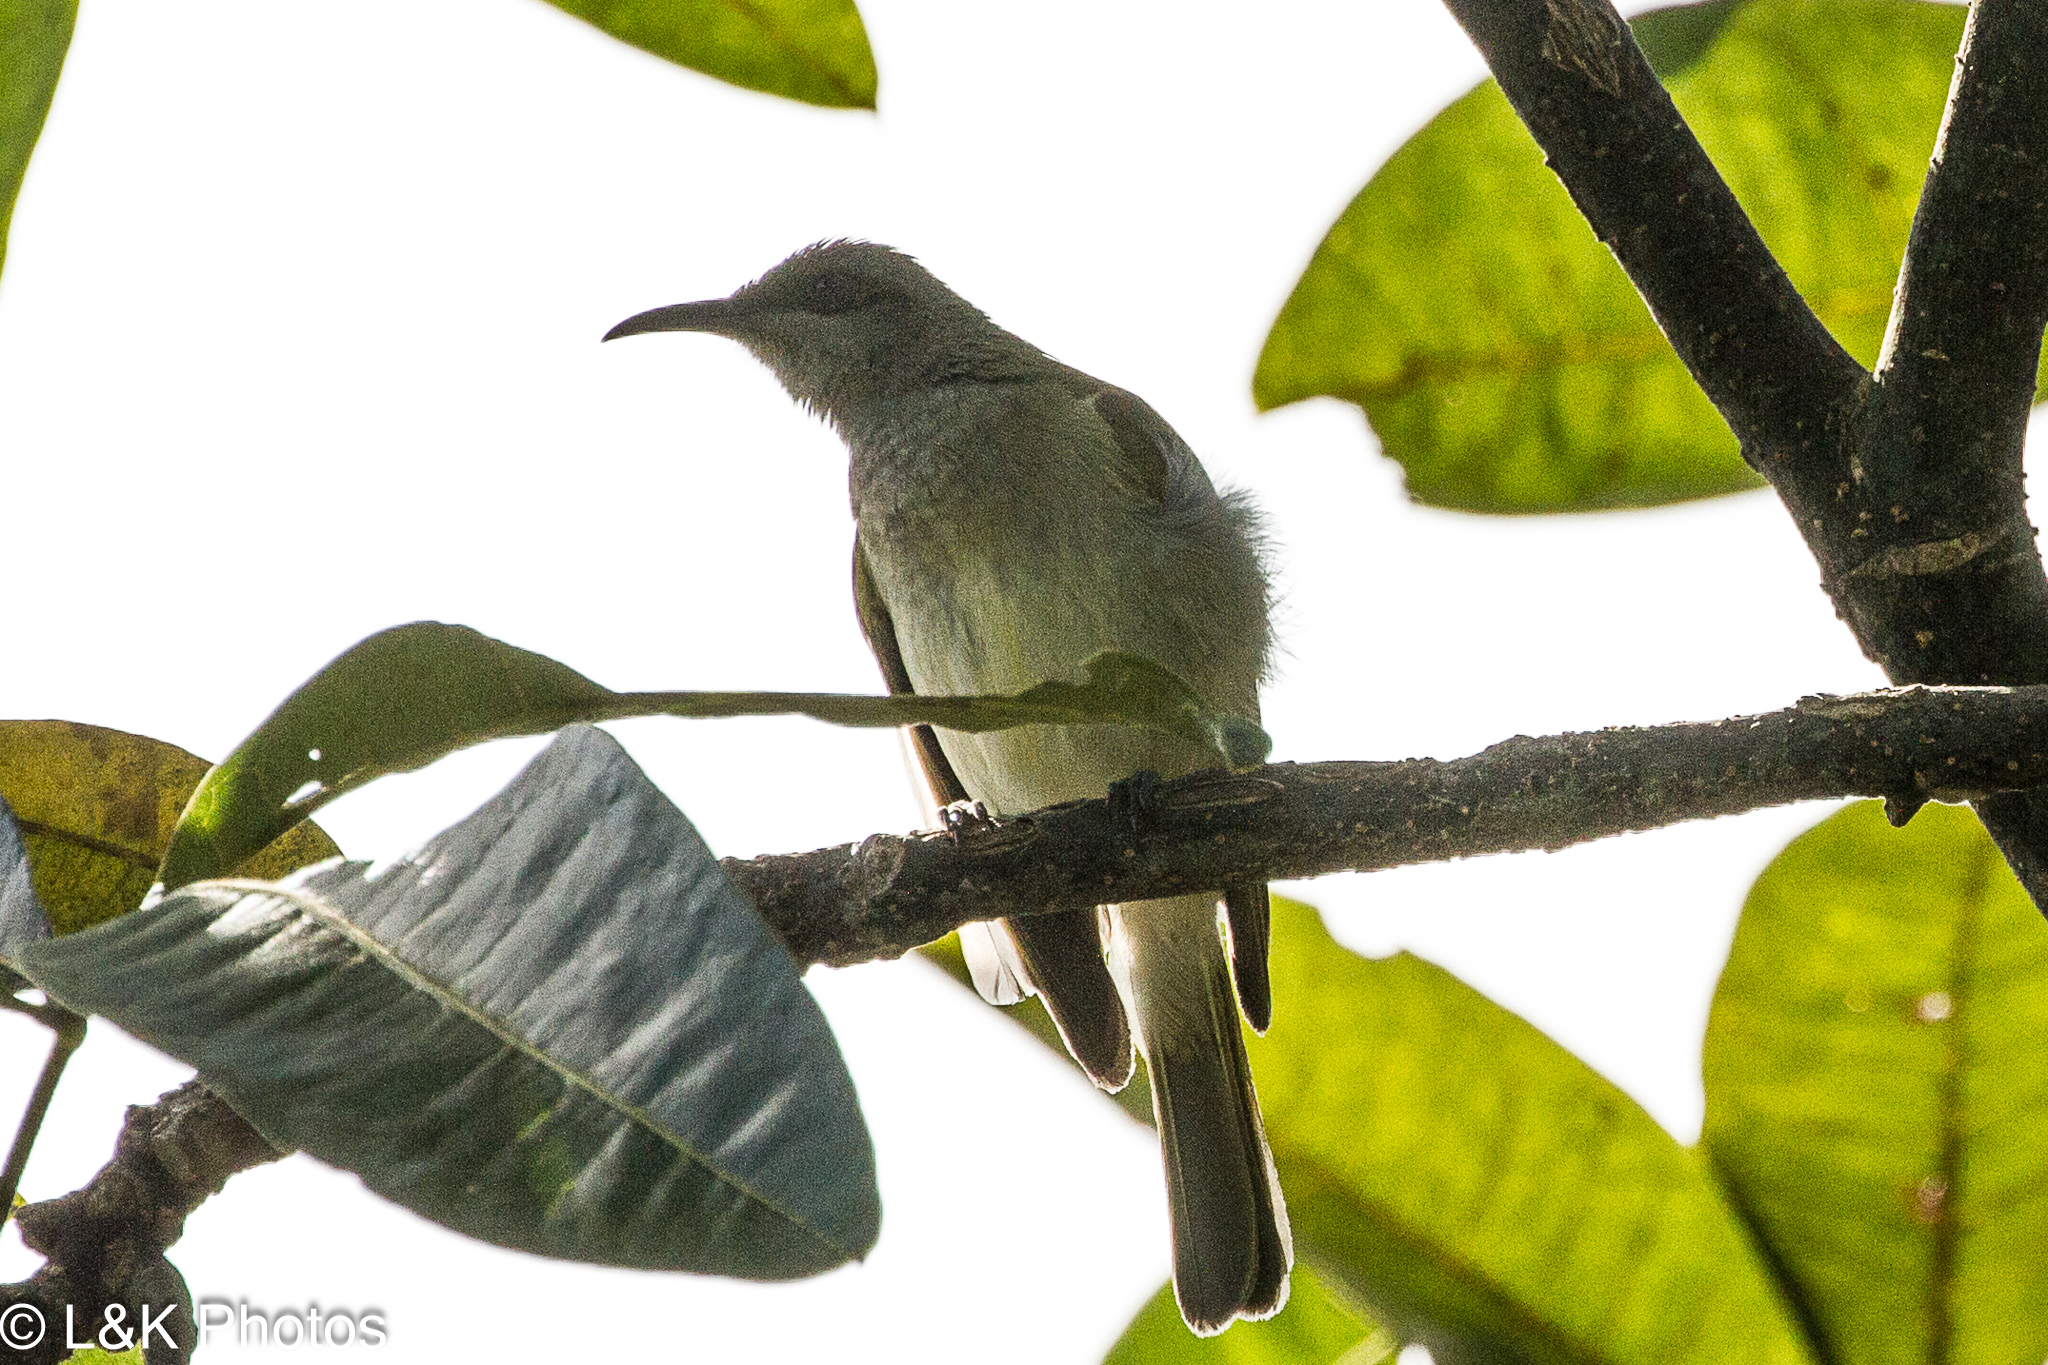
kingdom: Animalia
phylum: Chordata
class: Aves
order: Passeriformes
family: Meliphagidae
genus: Lichmera
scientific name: Lichmera indistincta
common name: Brown honeyeater
